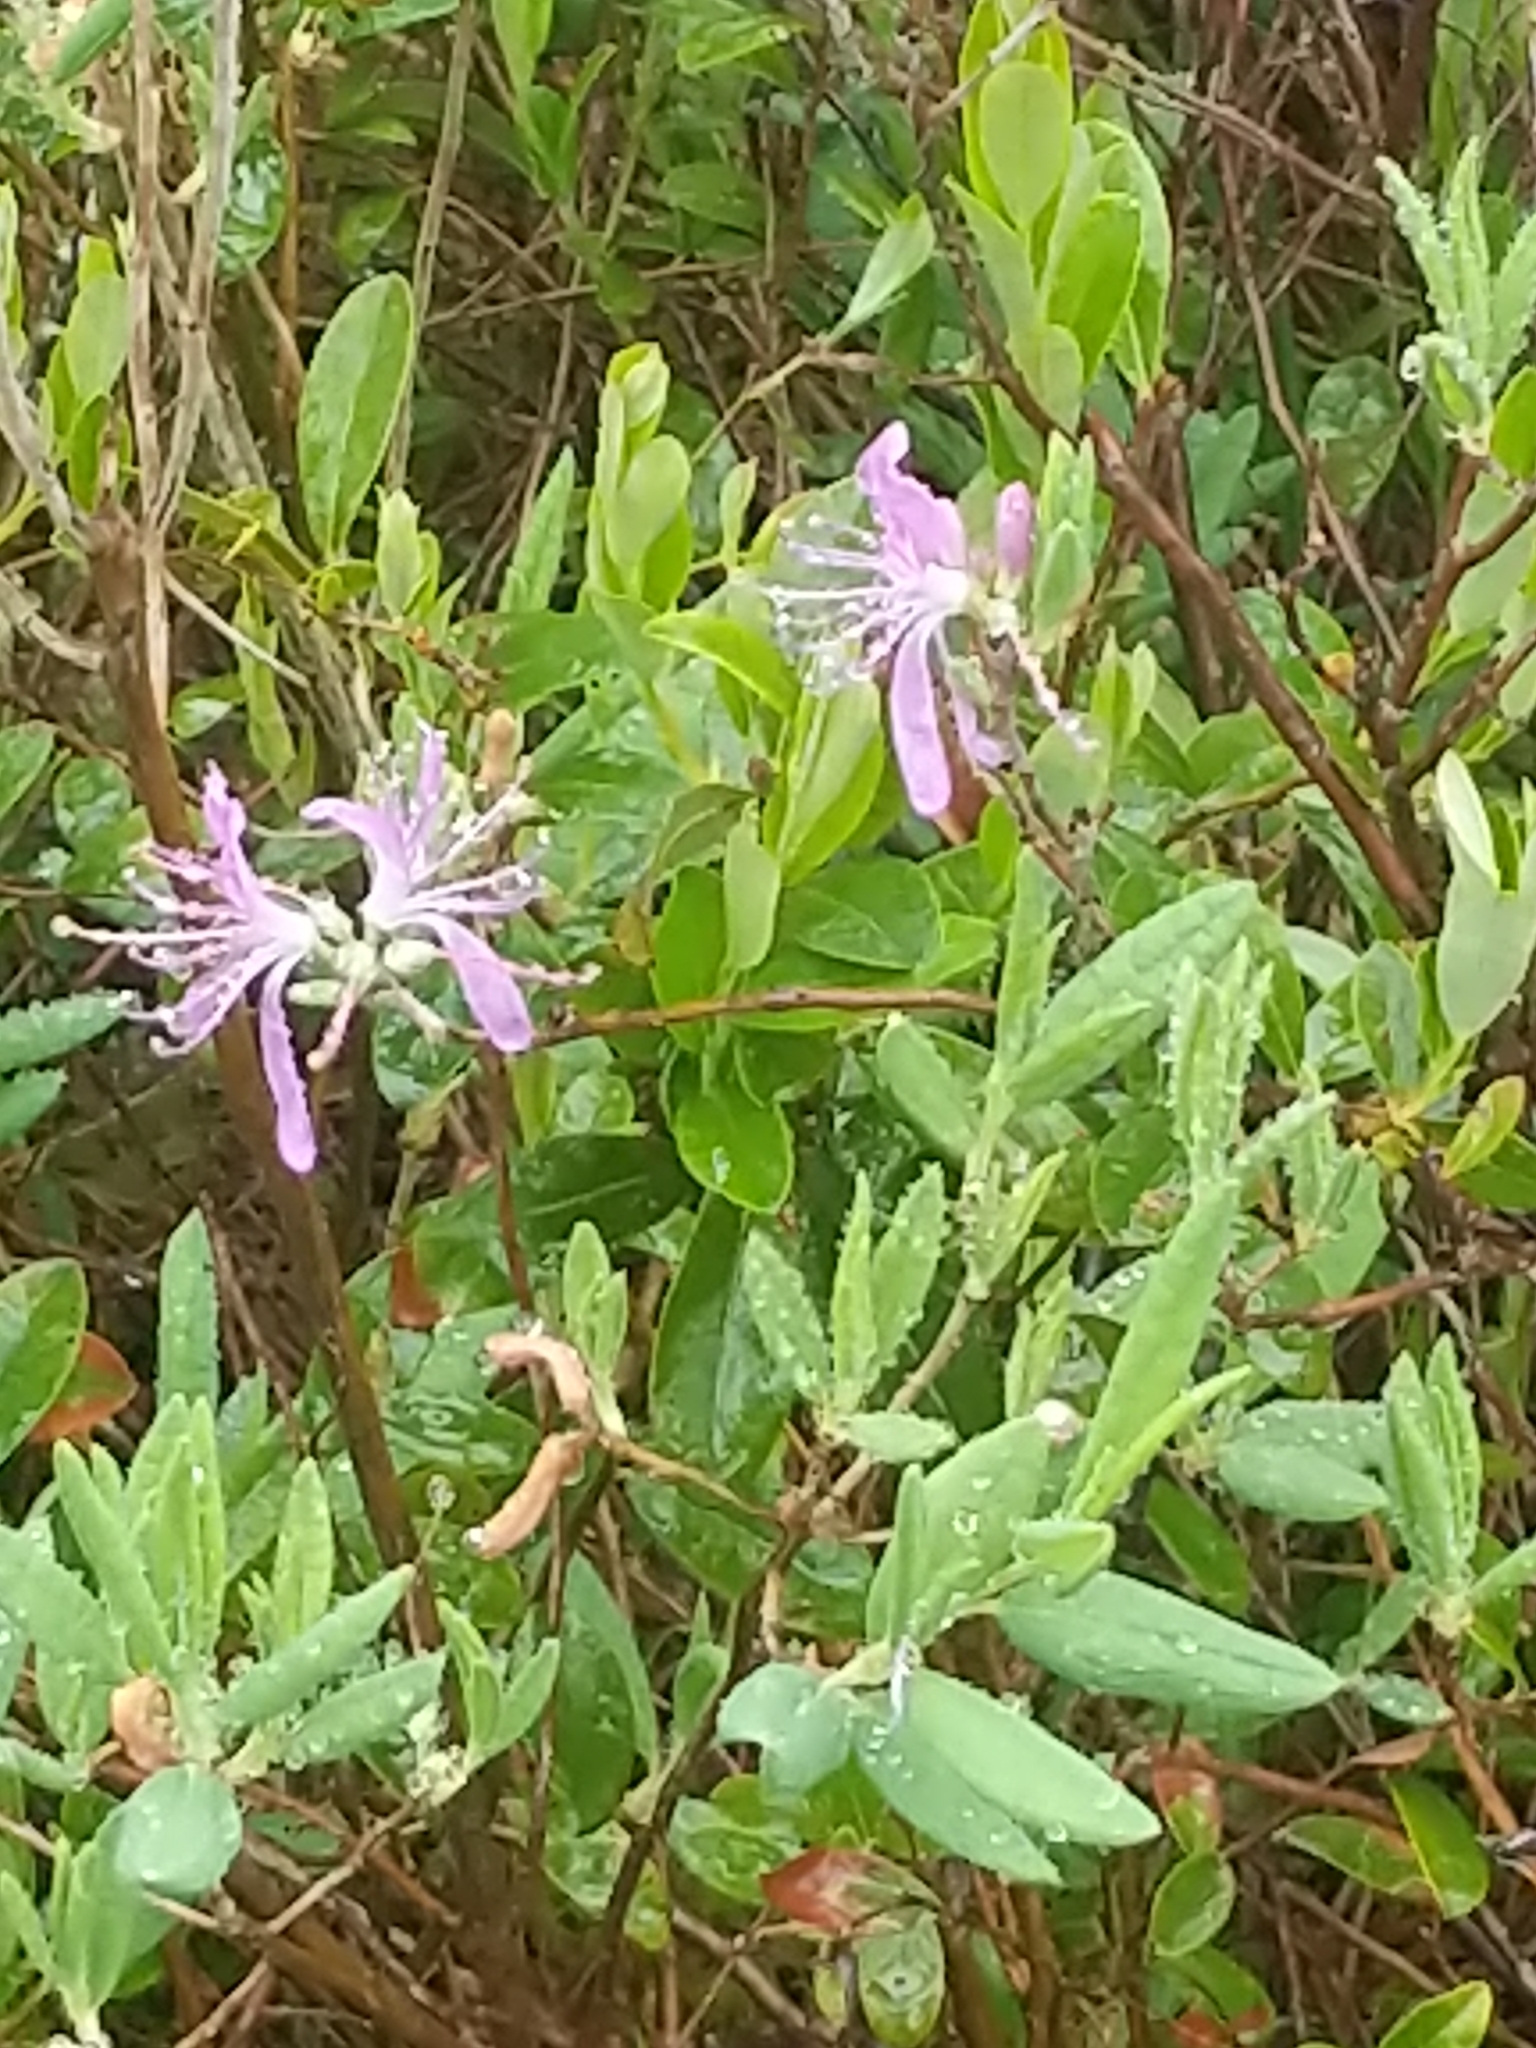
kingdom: Plantae
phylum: Tracheophyta
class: Magnoliopsida
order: Ericales
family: Ericaceae
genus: Rhododendron
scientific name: Rhododendron canadense
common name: Rhodora
